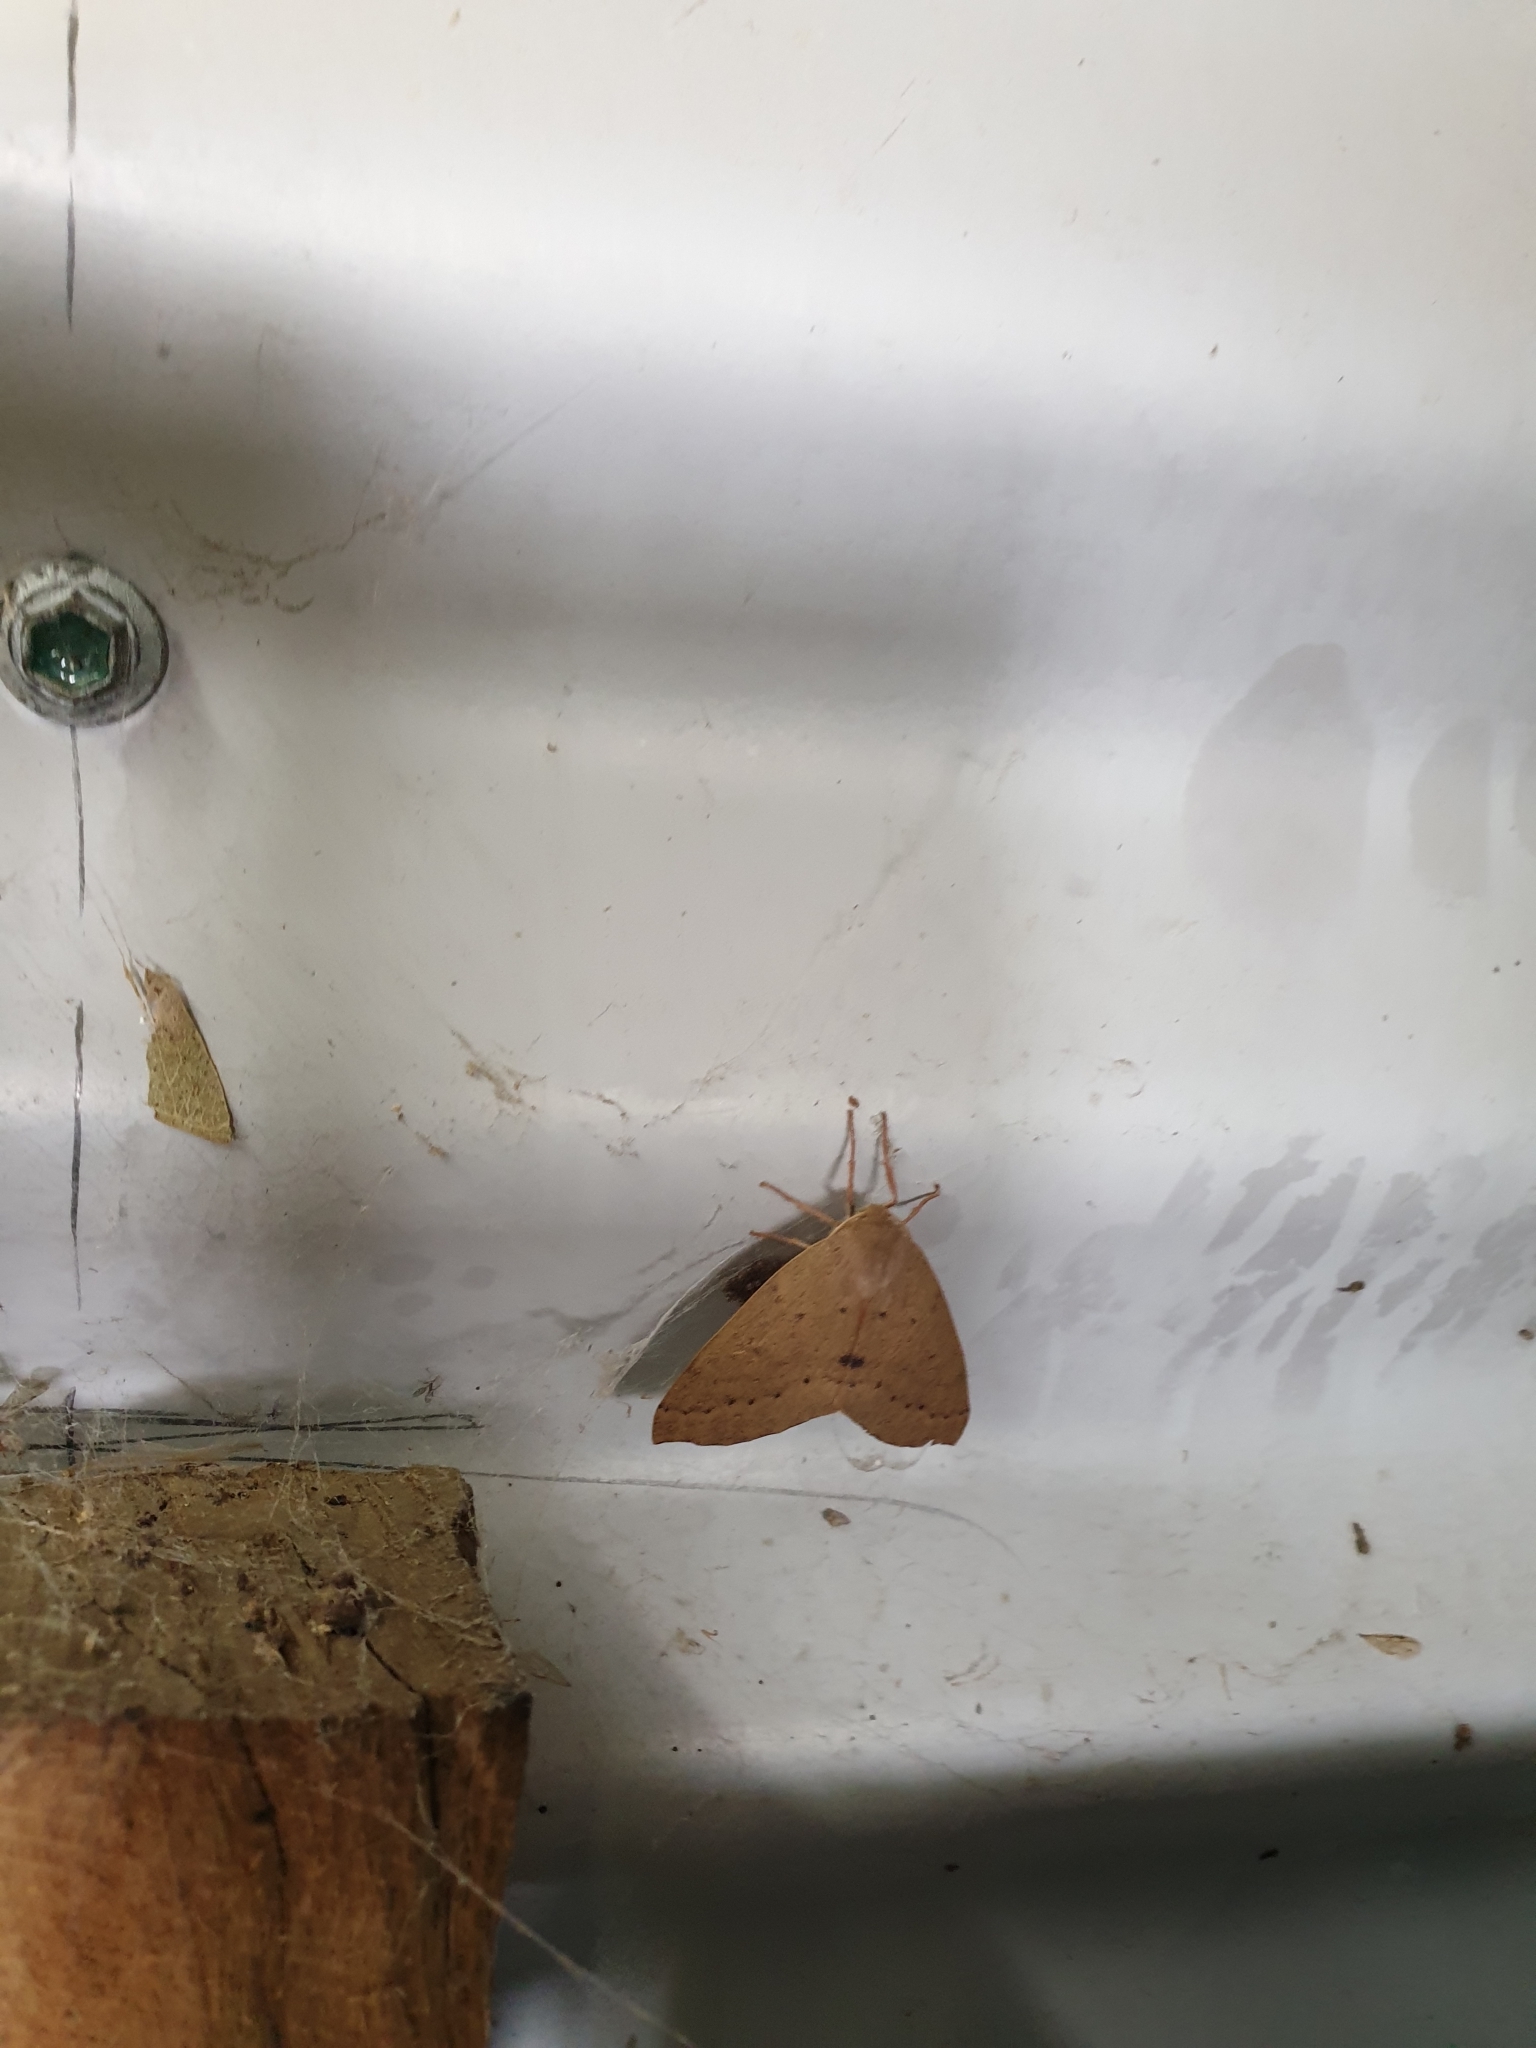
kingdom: Animalia
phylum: Arthropoda
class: Insecta
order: Lepidoptera
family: Geometridae
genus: Arhodia
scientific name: Arhodia lasiocamparia
